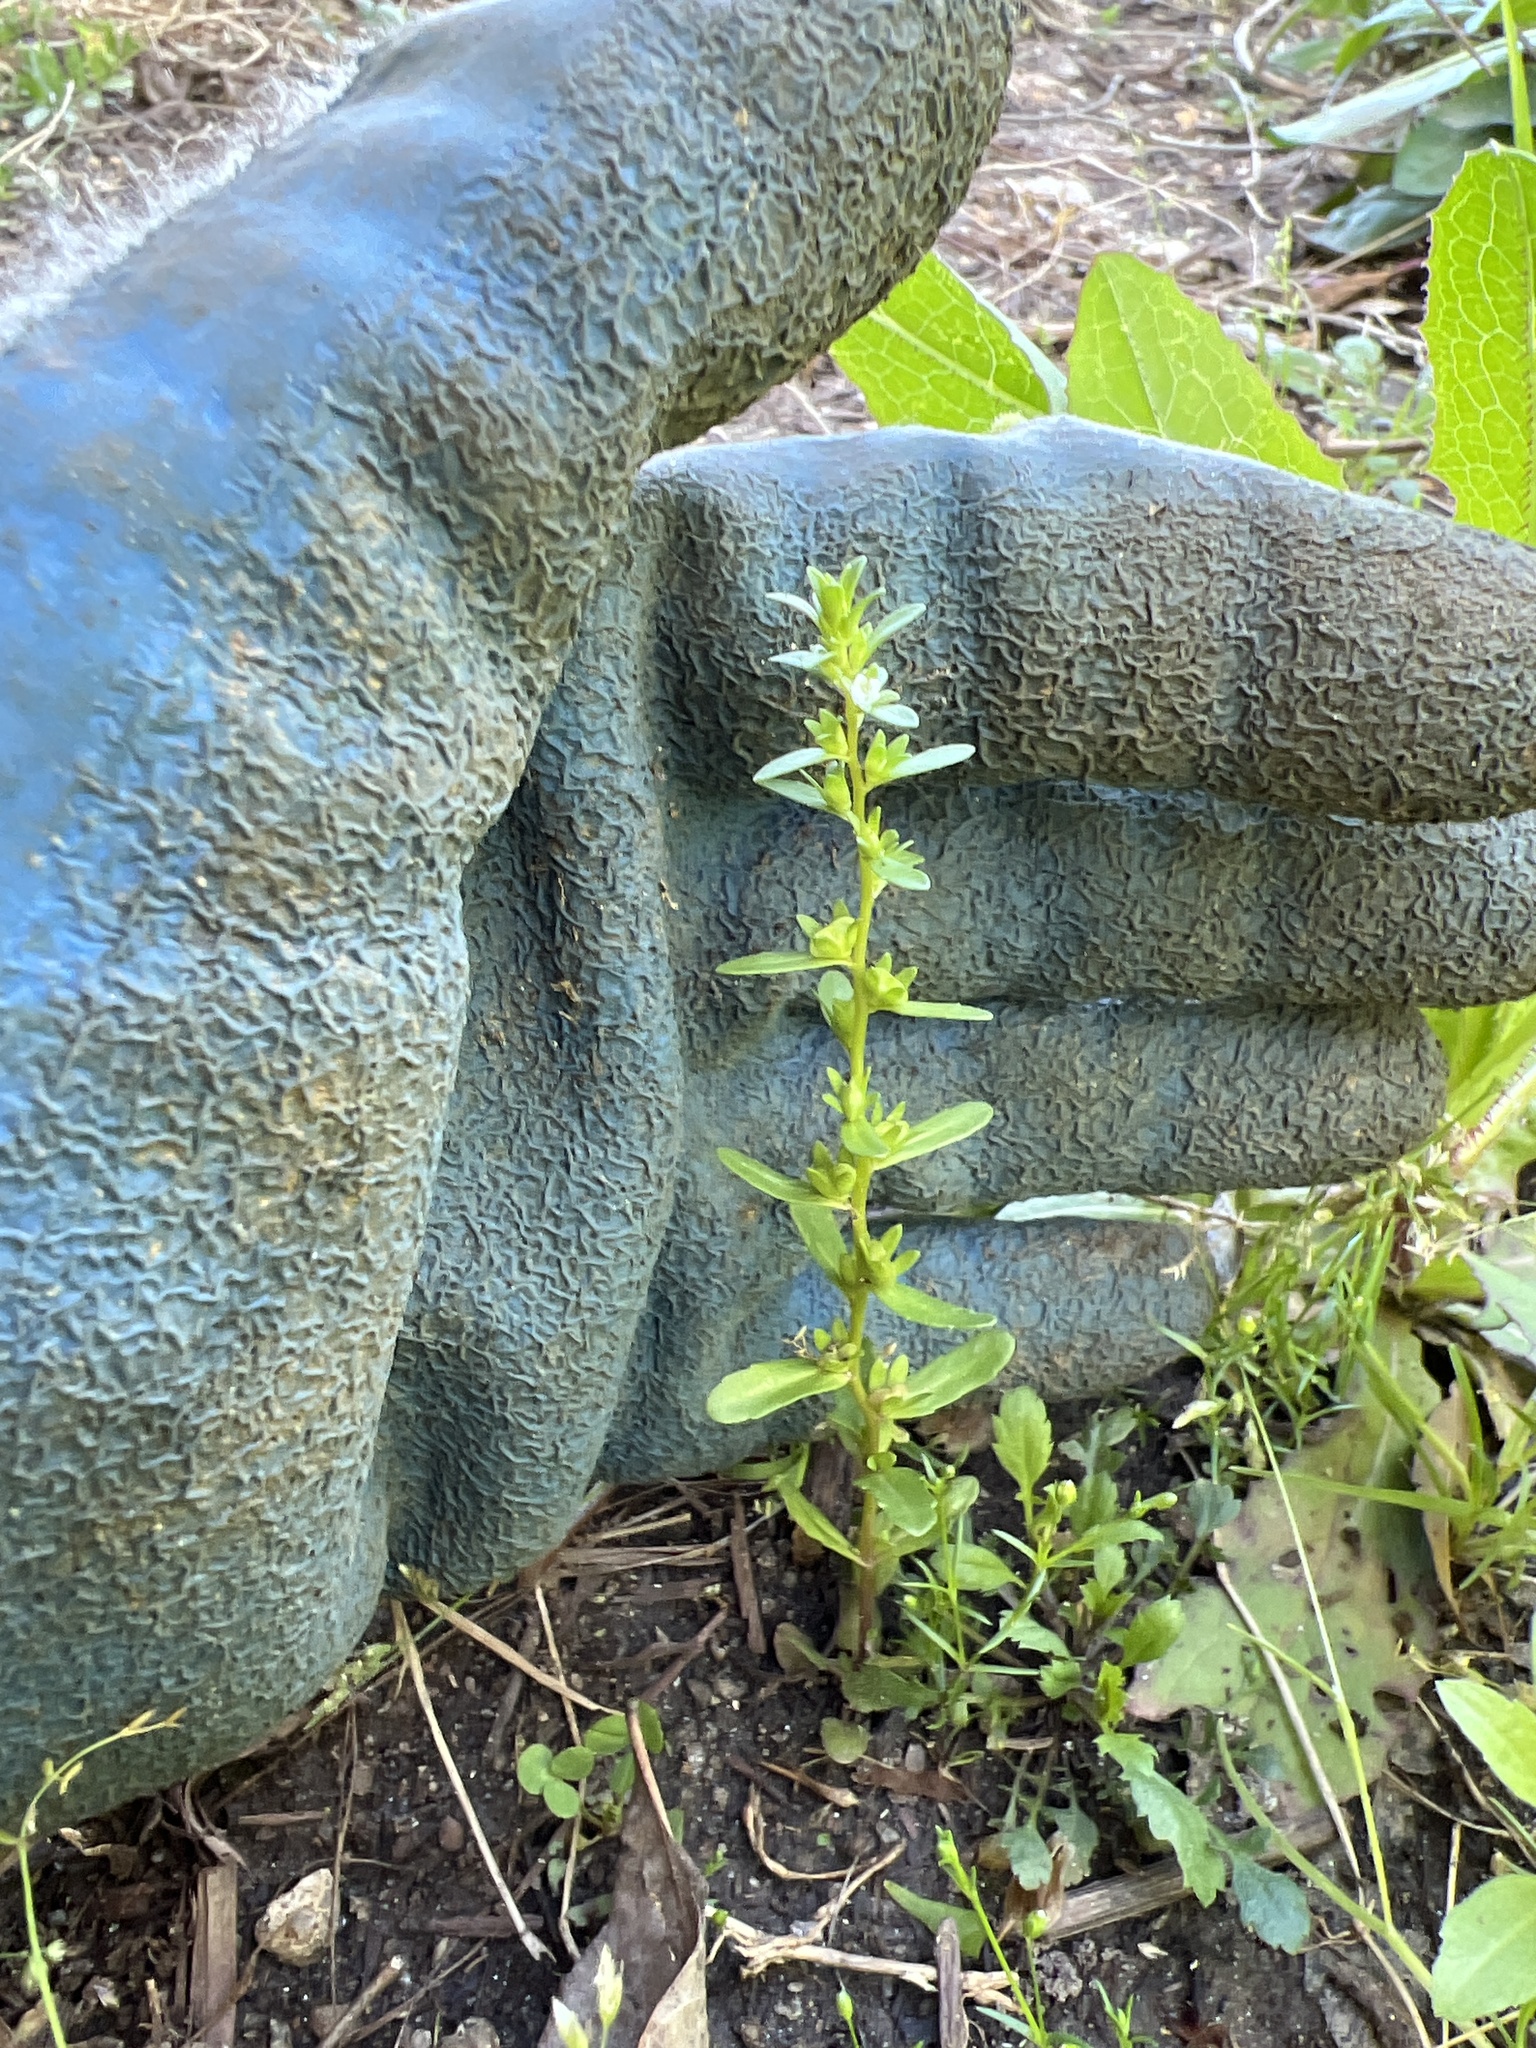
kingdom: Plantae
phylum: Tracheophyta
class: Magnoliopsida
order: Lamiales
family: Plantaginaceae
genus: Veronica
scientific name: Veronica peregrina
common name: Neckweed
